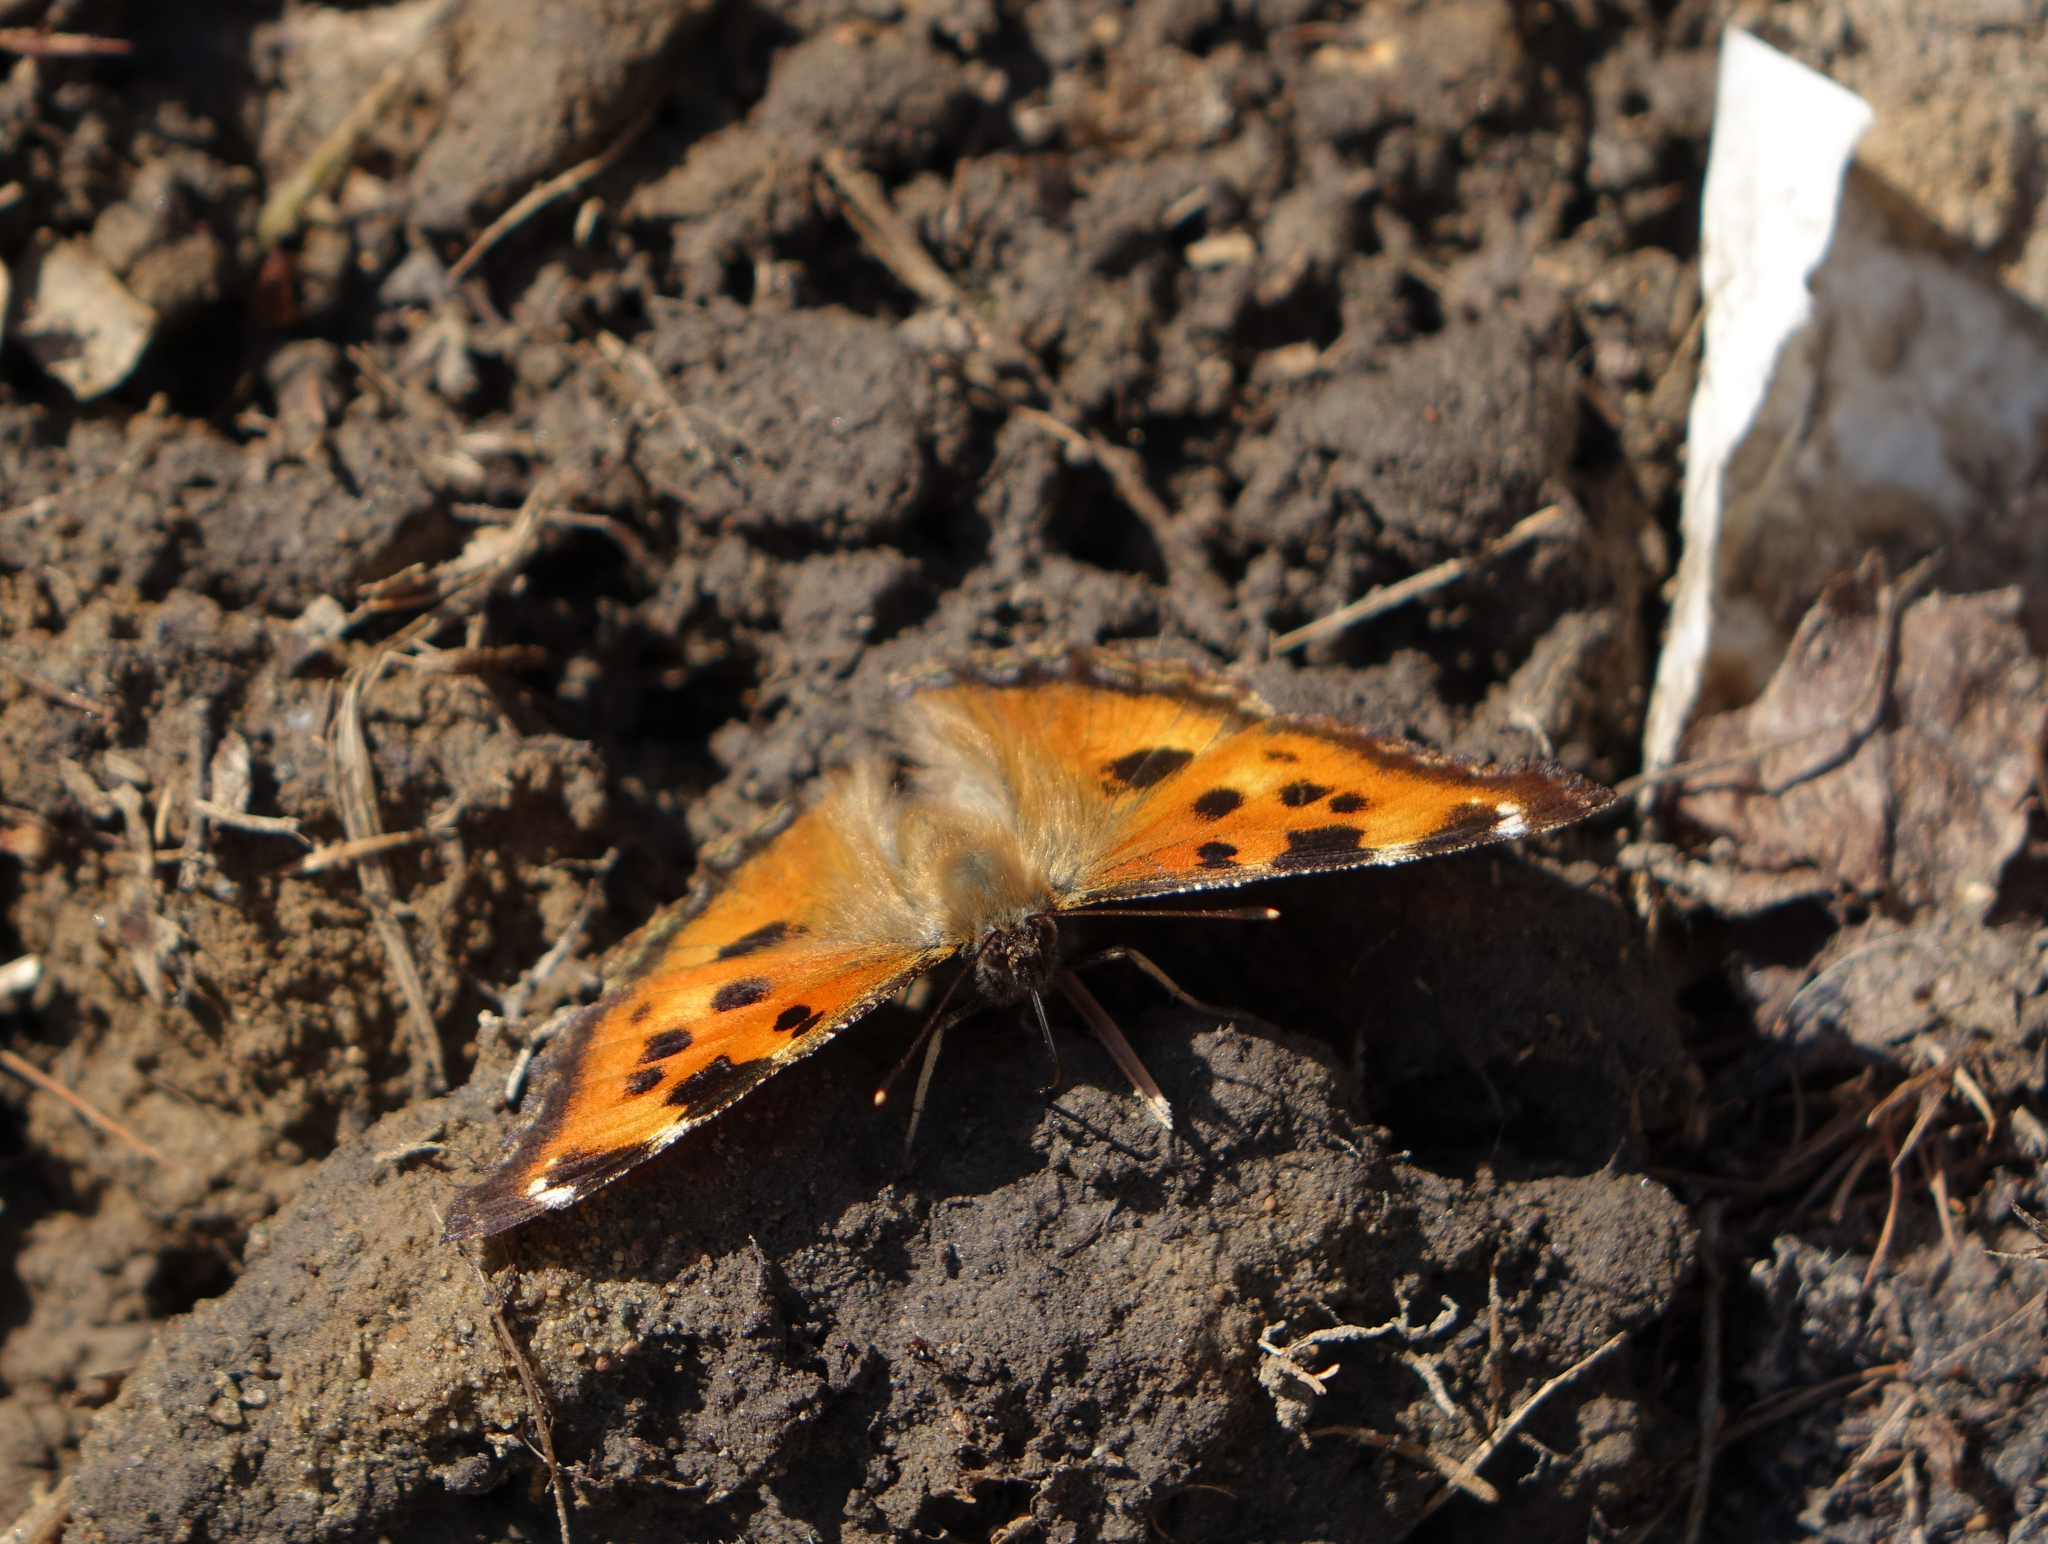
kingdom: Animalia
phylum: Arthropoda
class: Insecta
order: Lepidoptera
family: Nymphalidae
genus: Nymphalis
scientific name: Nymphalis xanthomelas
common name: Scarce tortoiseshell
